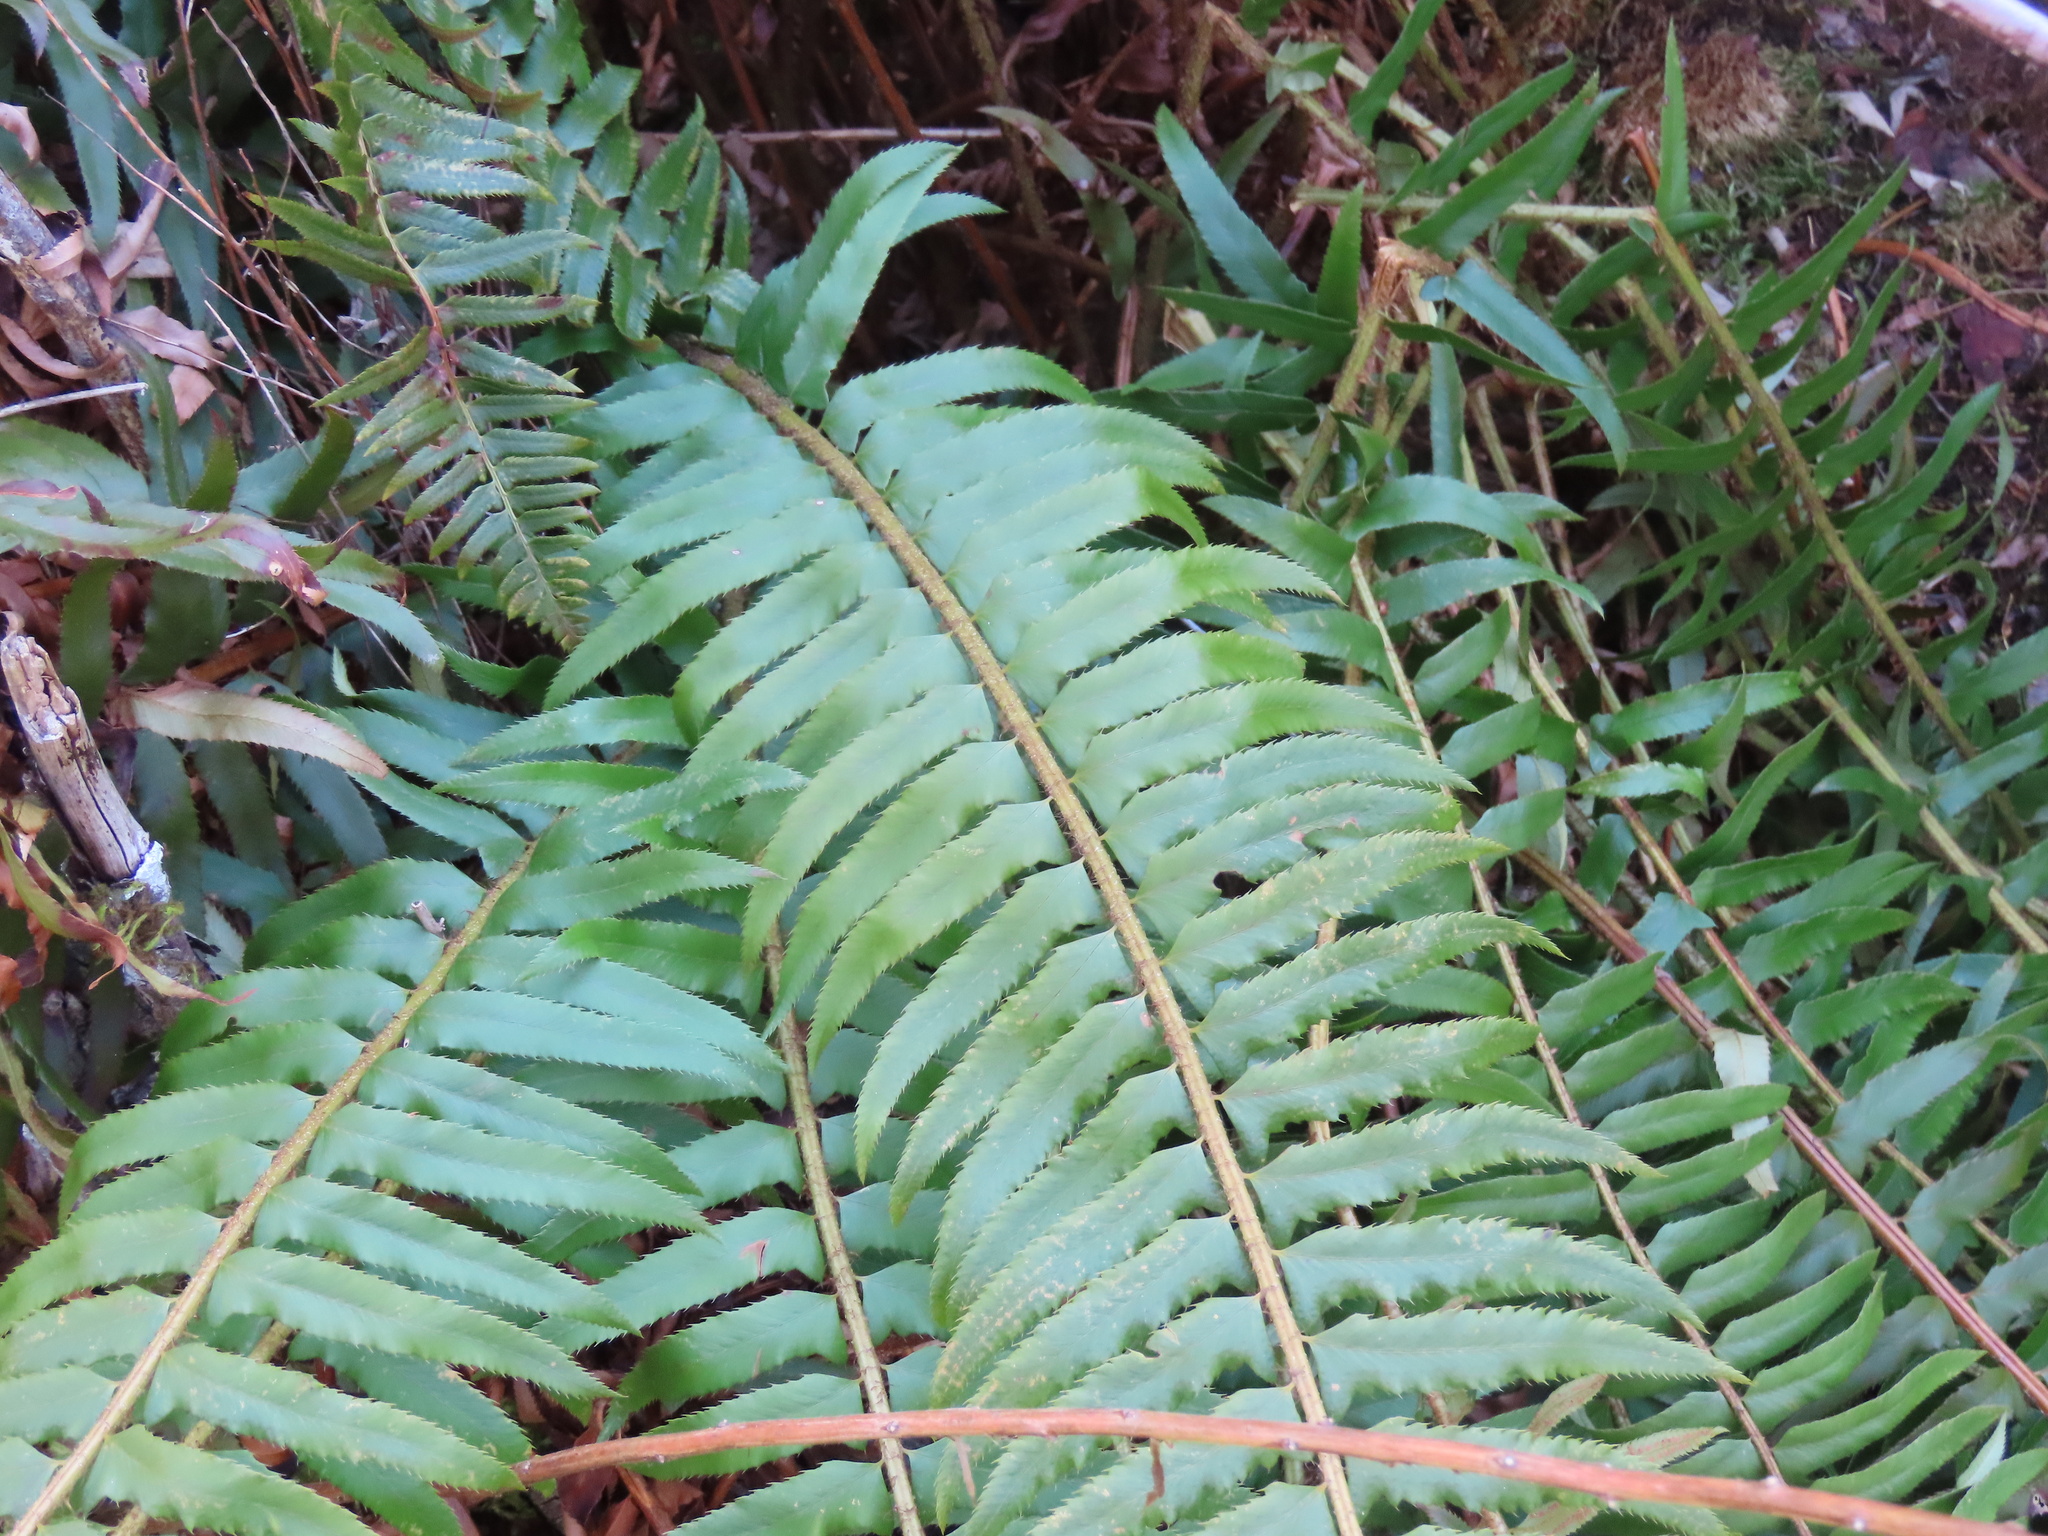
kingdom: Plantae
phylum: Tracheophyta
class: Polypodiopsida
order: Polypodiales
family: Dryopteridaceae
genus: Polystichum
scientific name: Polystichum munitum
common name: Western sword-fern
